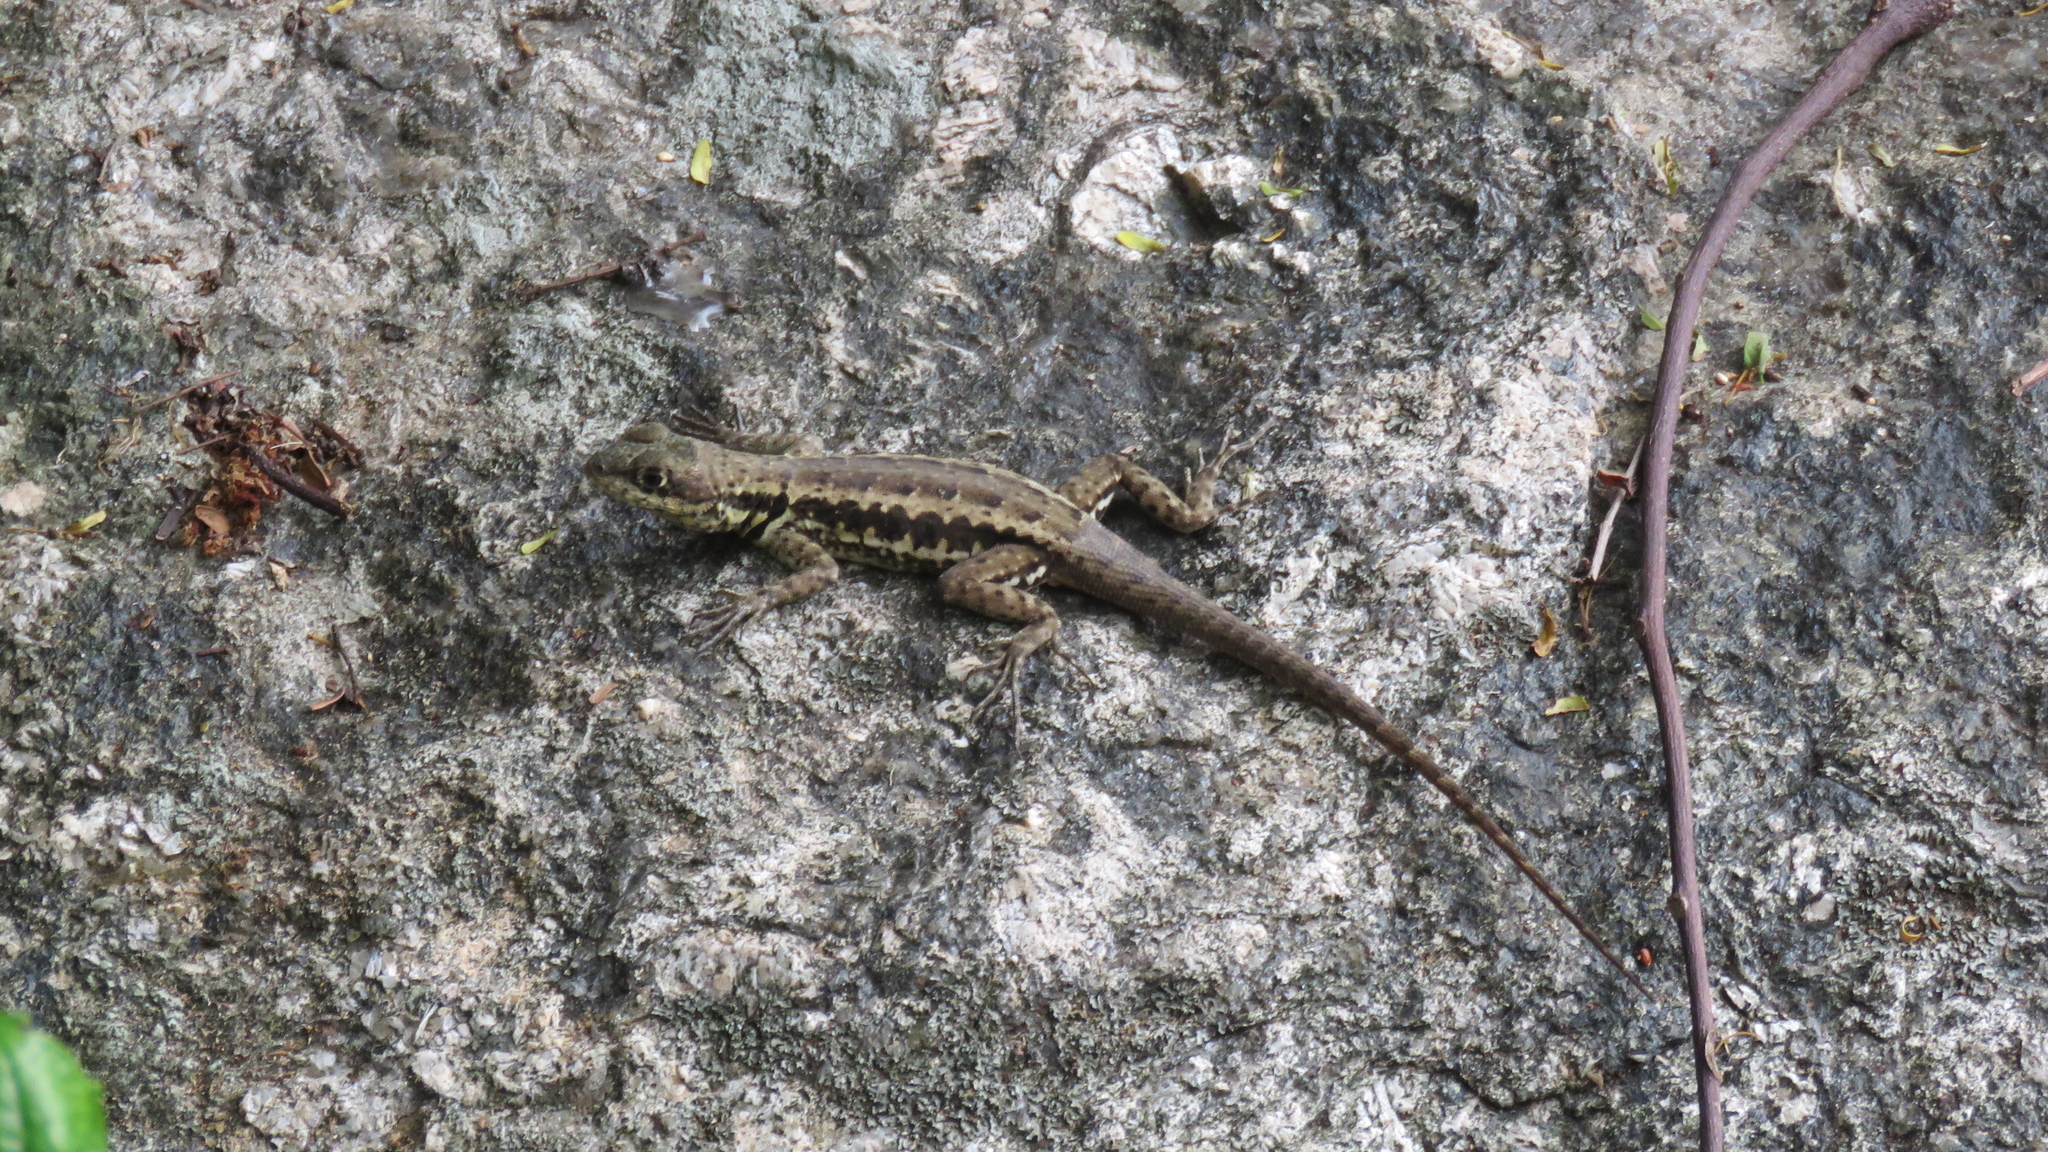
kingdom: Animalia
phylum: Chordata
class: Squamata
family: Tropiduridae
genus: Tropidurus
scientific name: Tropidurus torquatus
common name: Amazon lava lizard
